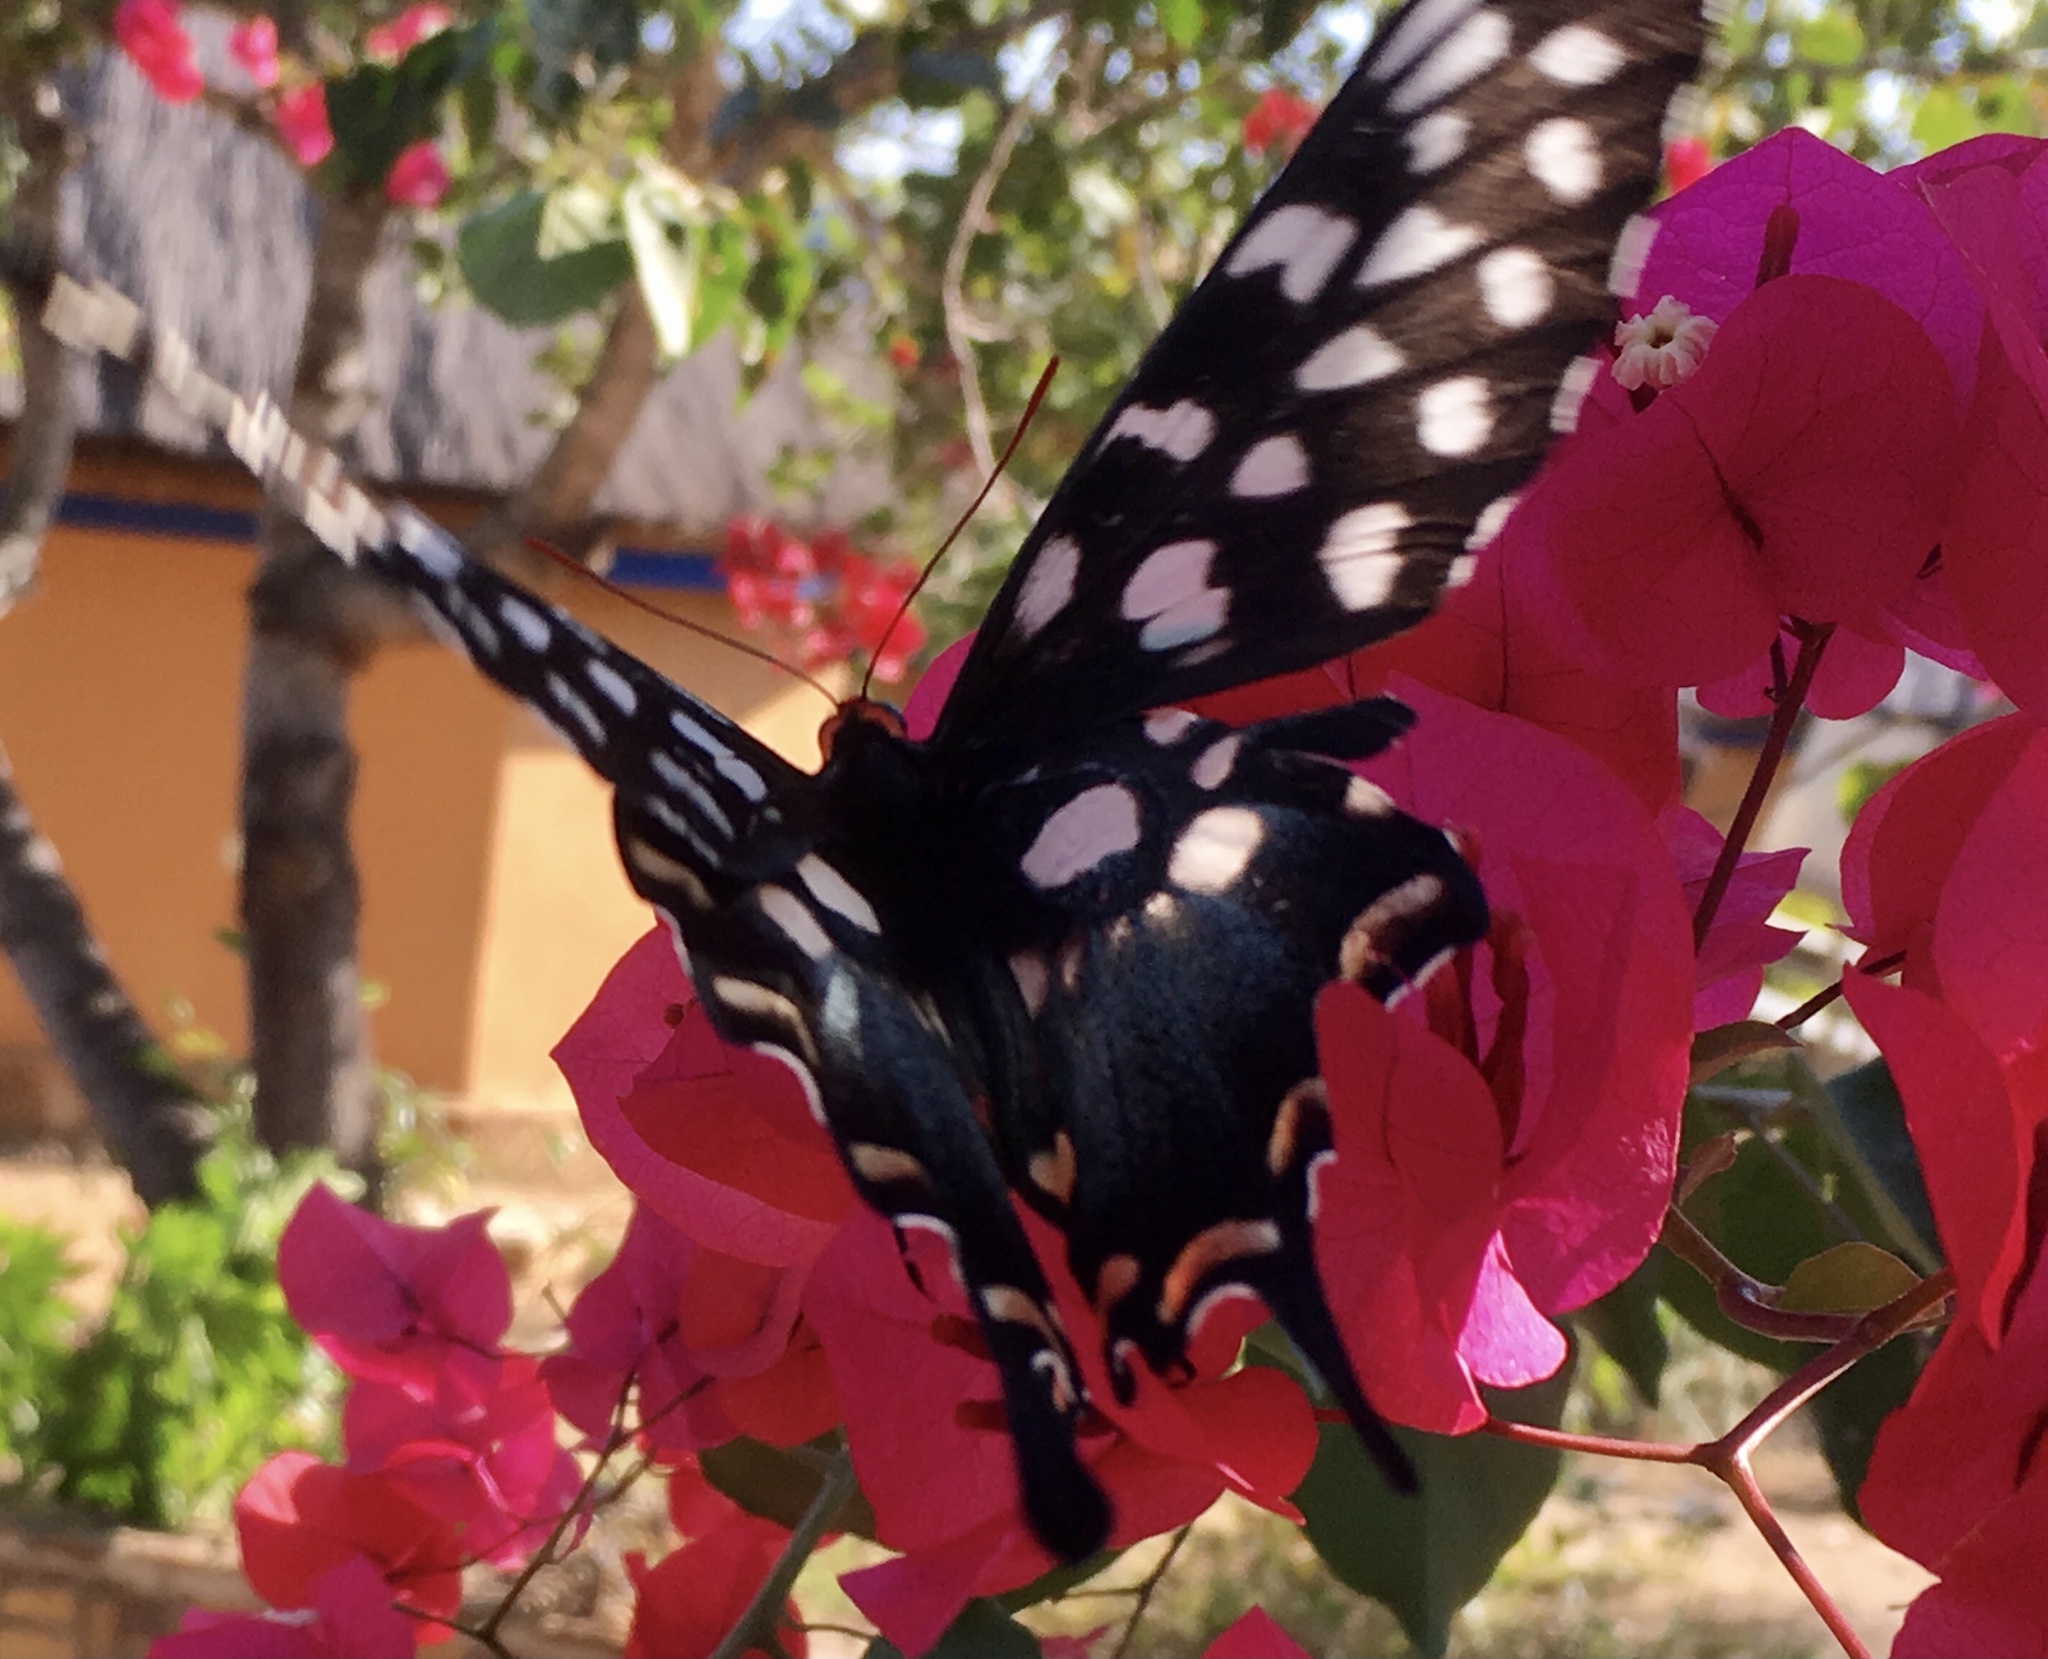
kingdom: Animalia
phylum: Arthropoda
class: Insecta
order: Lepidoptera
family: Papilionidae
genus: Pharmacophagus
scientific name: Pharmacophagus antenor
